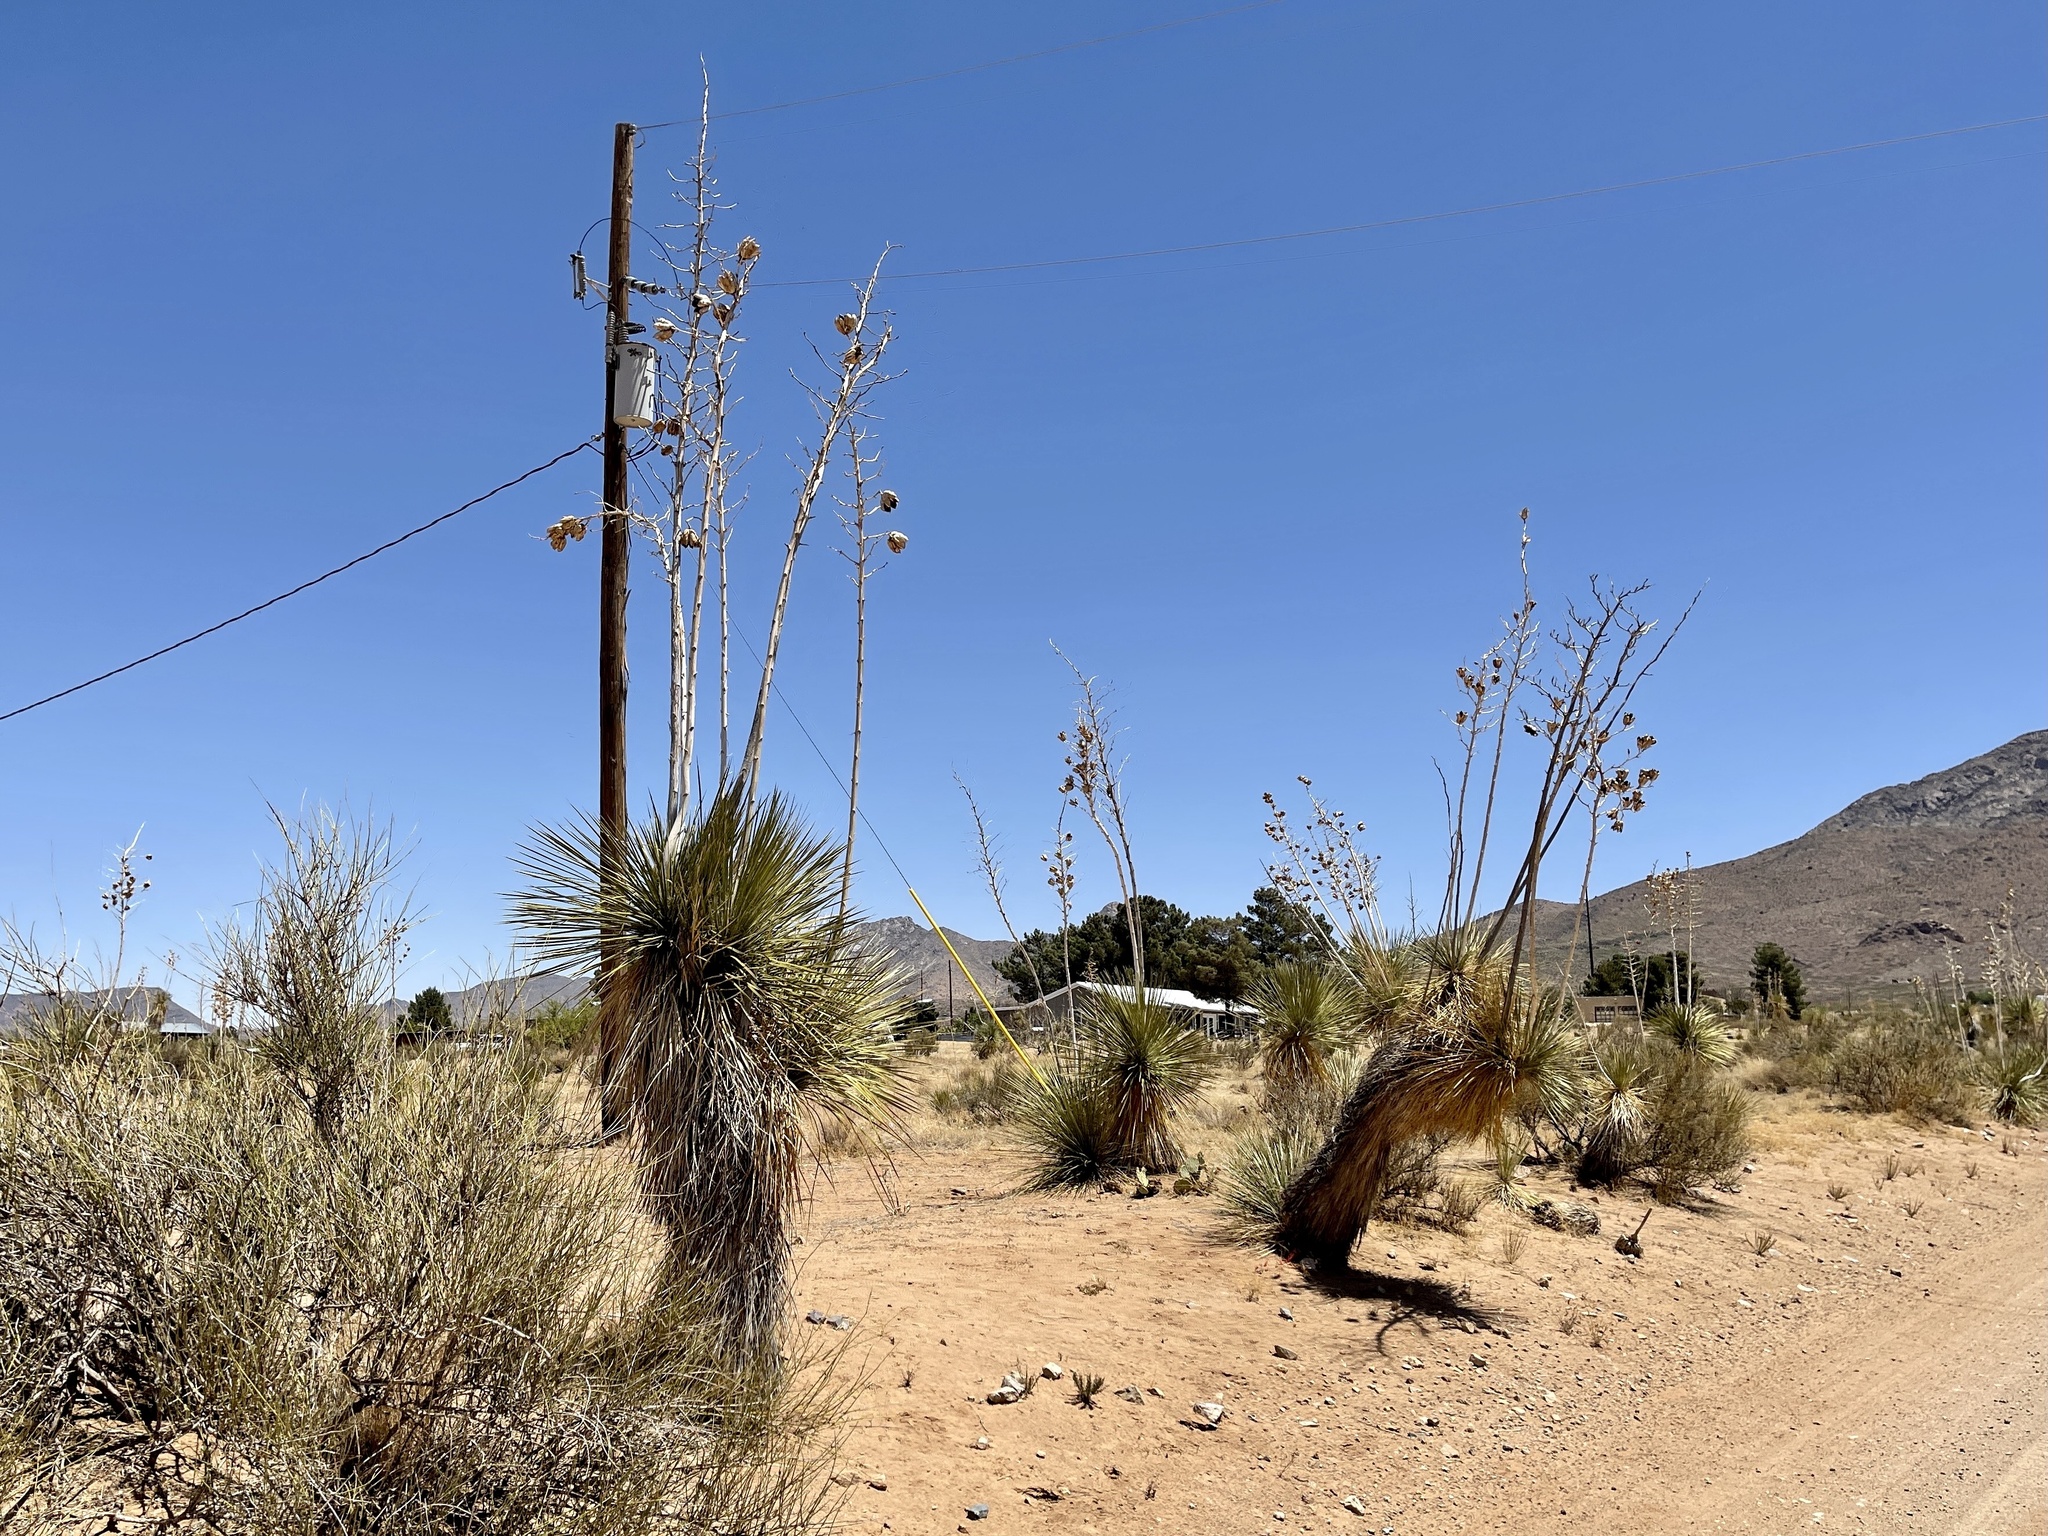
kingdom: Plantae
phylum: Tracheophyta
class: Liliopsida
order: Asparagales
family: Asparagaceae
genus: Yucca
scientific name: Yucca elata
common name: Palmella
